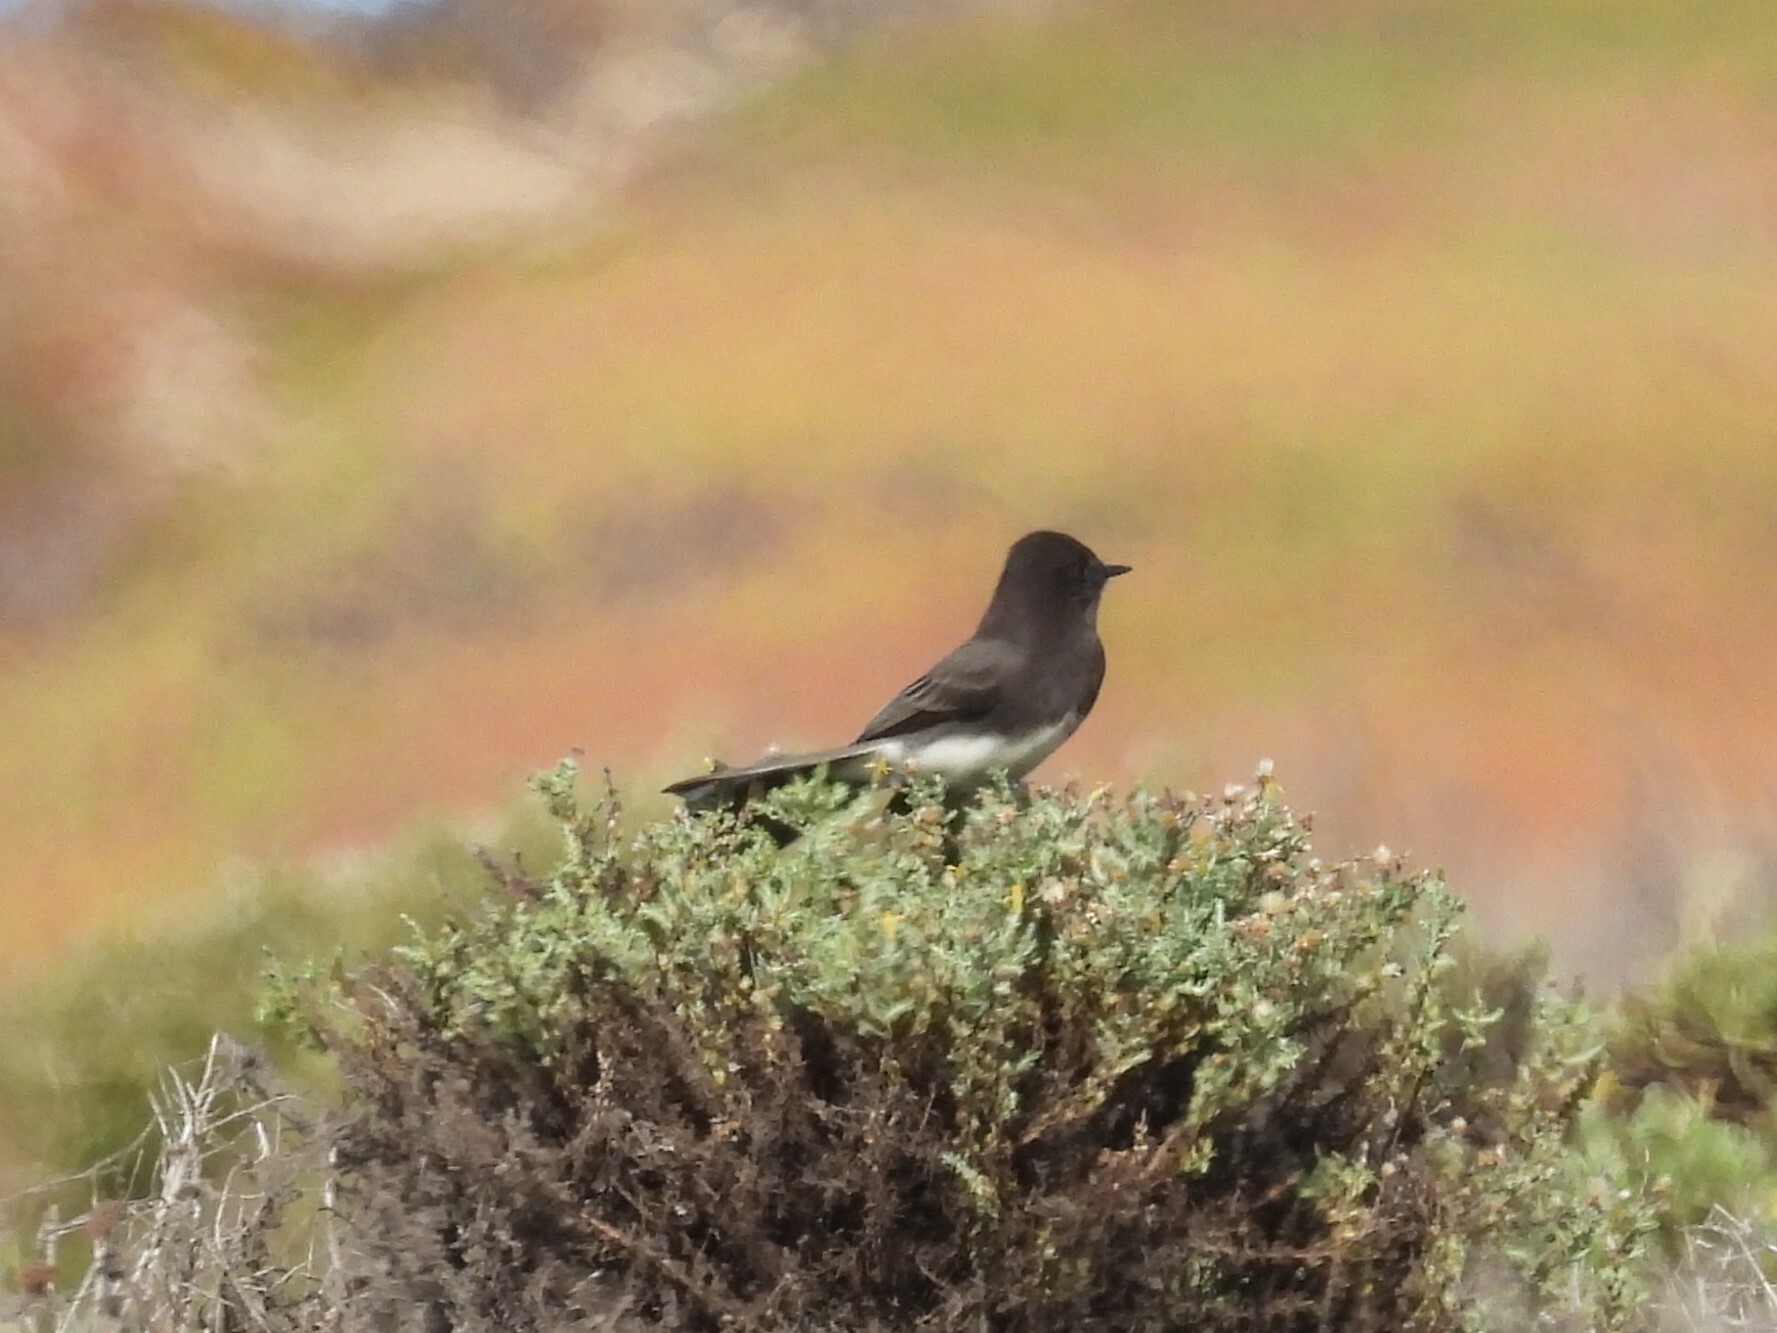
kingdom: Animalia
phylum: Chordata
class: Aves
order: Passeriformes
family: Tyrannidae
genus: Sayornis
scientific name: Sayornis nigricans
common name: Black phoebe
